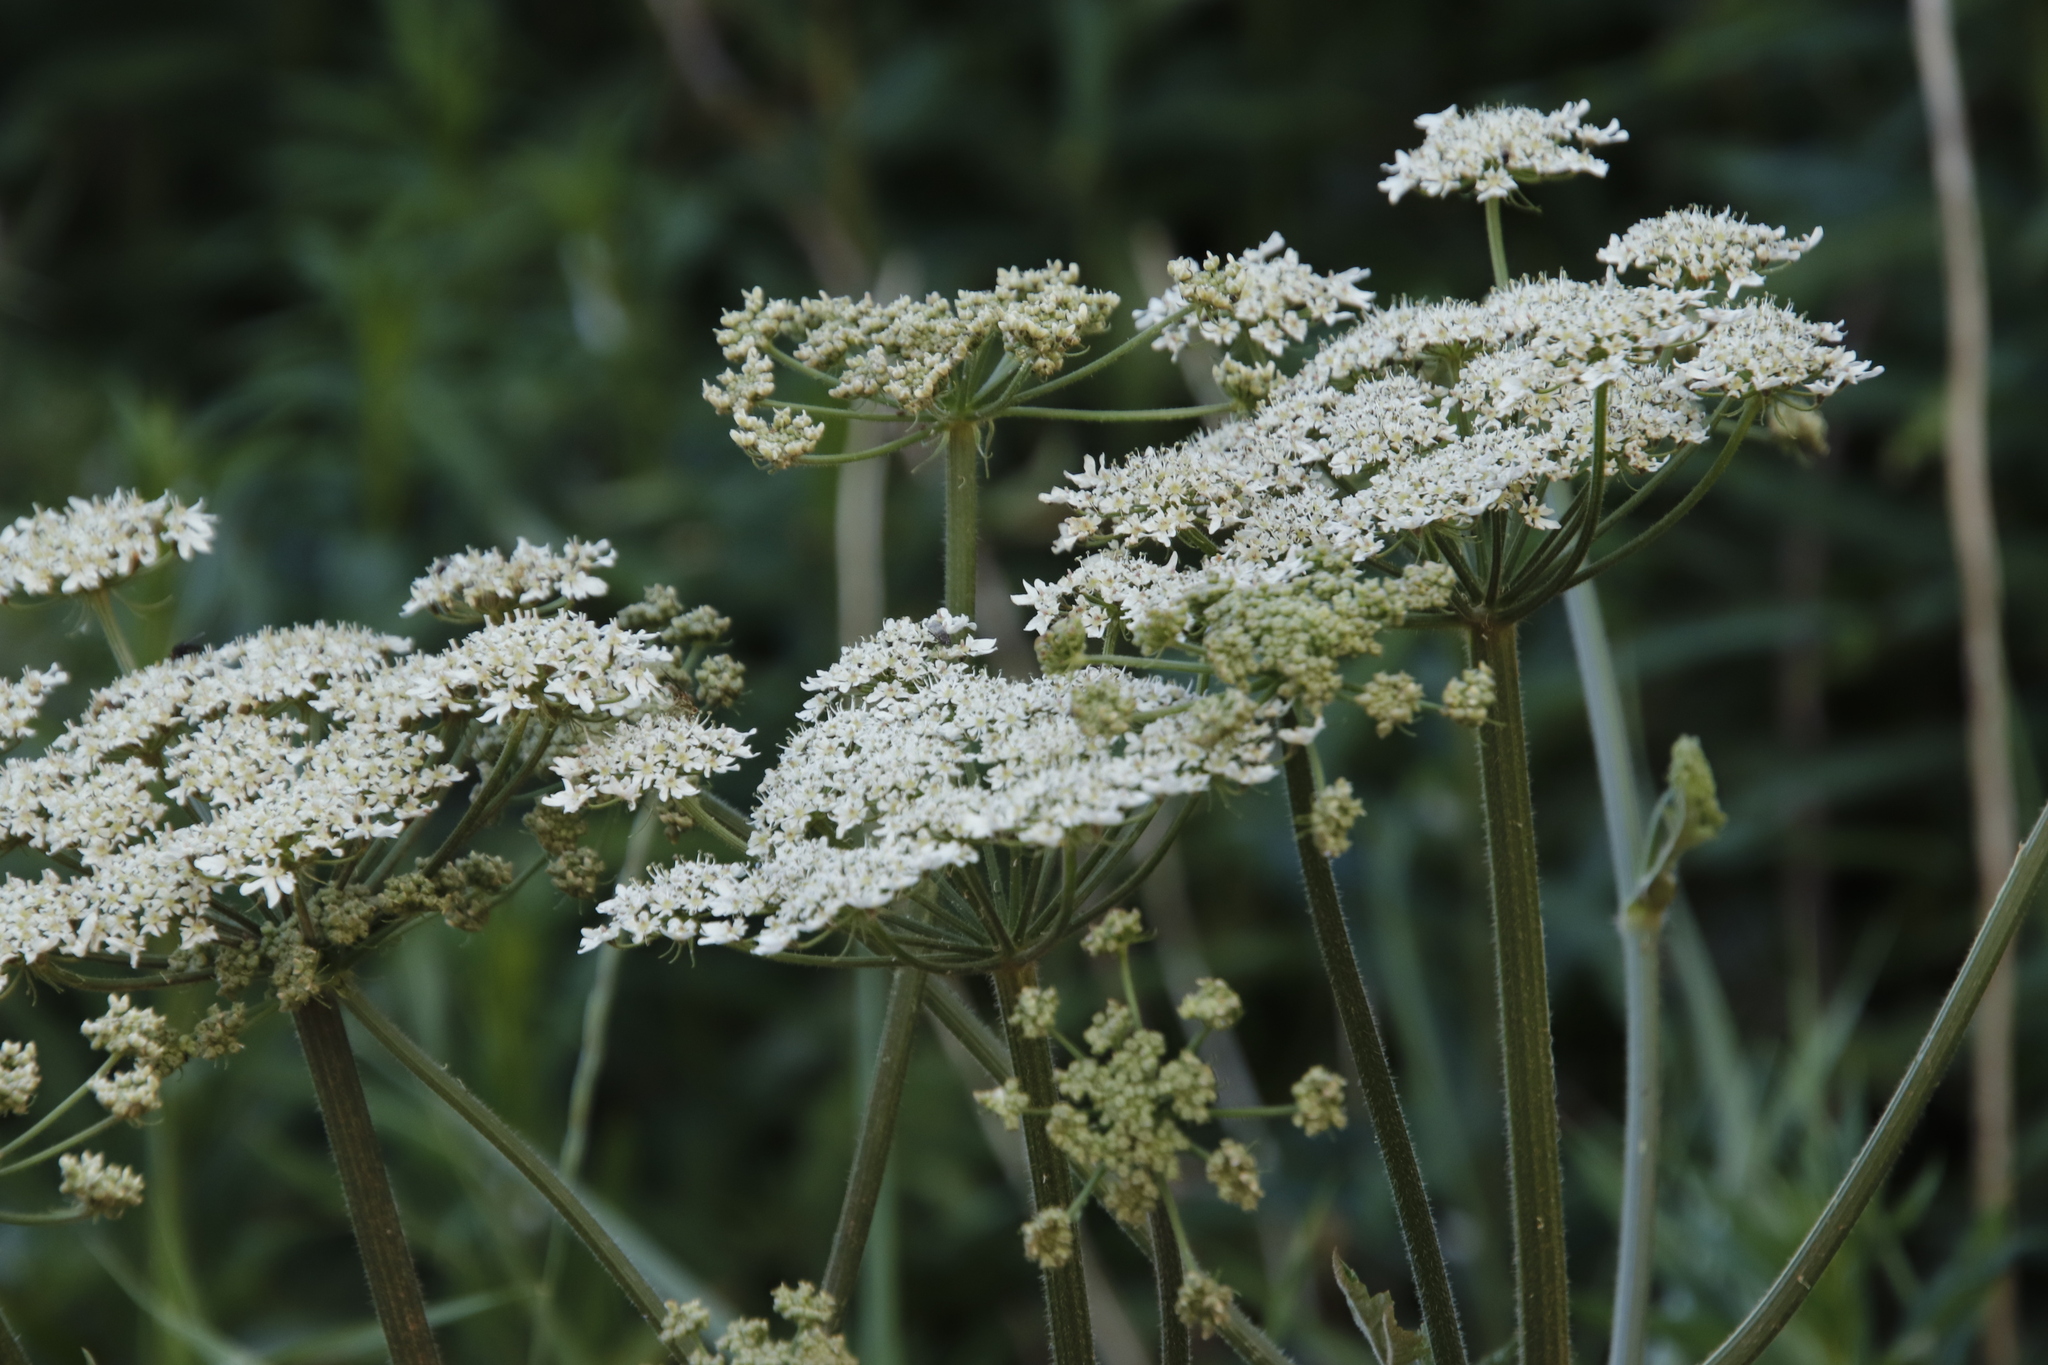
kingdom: Plantae
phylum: Tracheophyta
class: Magnoliopsida
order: Apiales
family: Apiaceae
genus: Heracleum
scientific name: Heracleum sphondylium
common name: Hogweed
